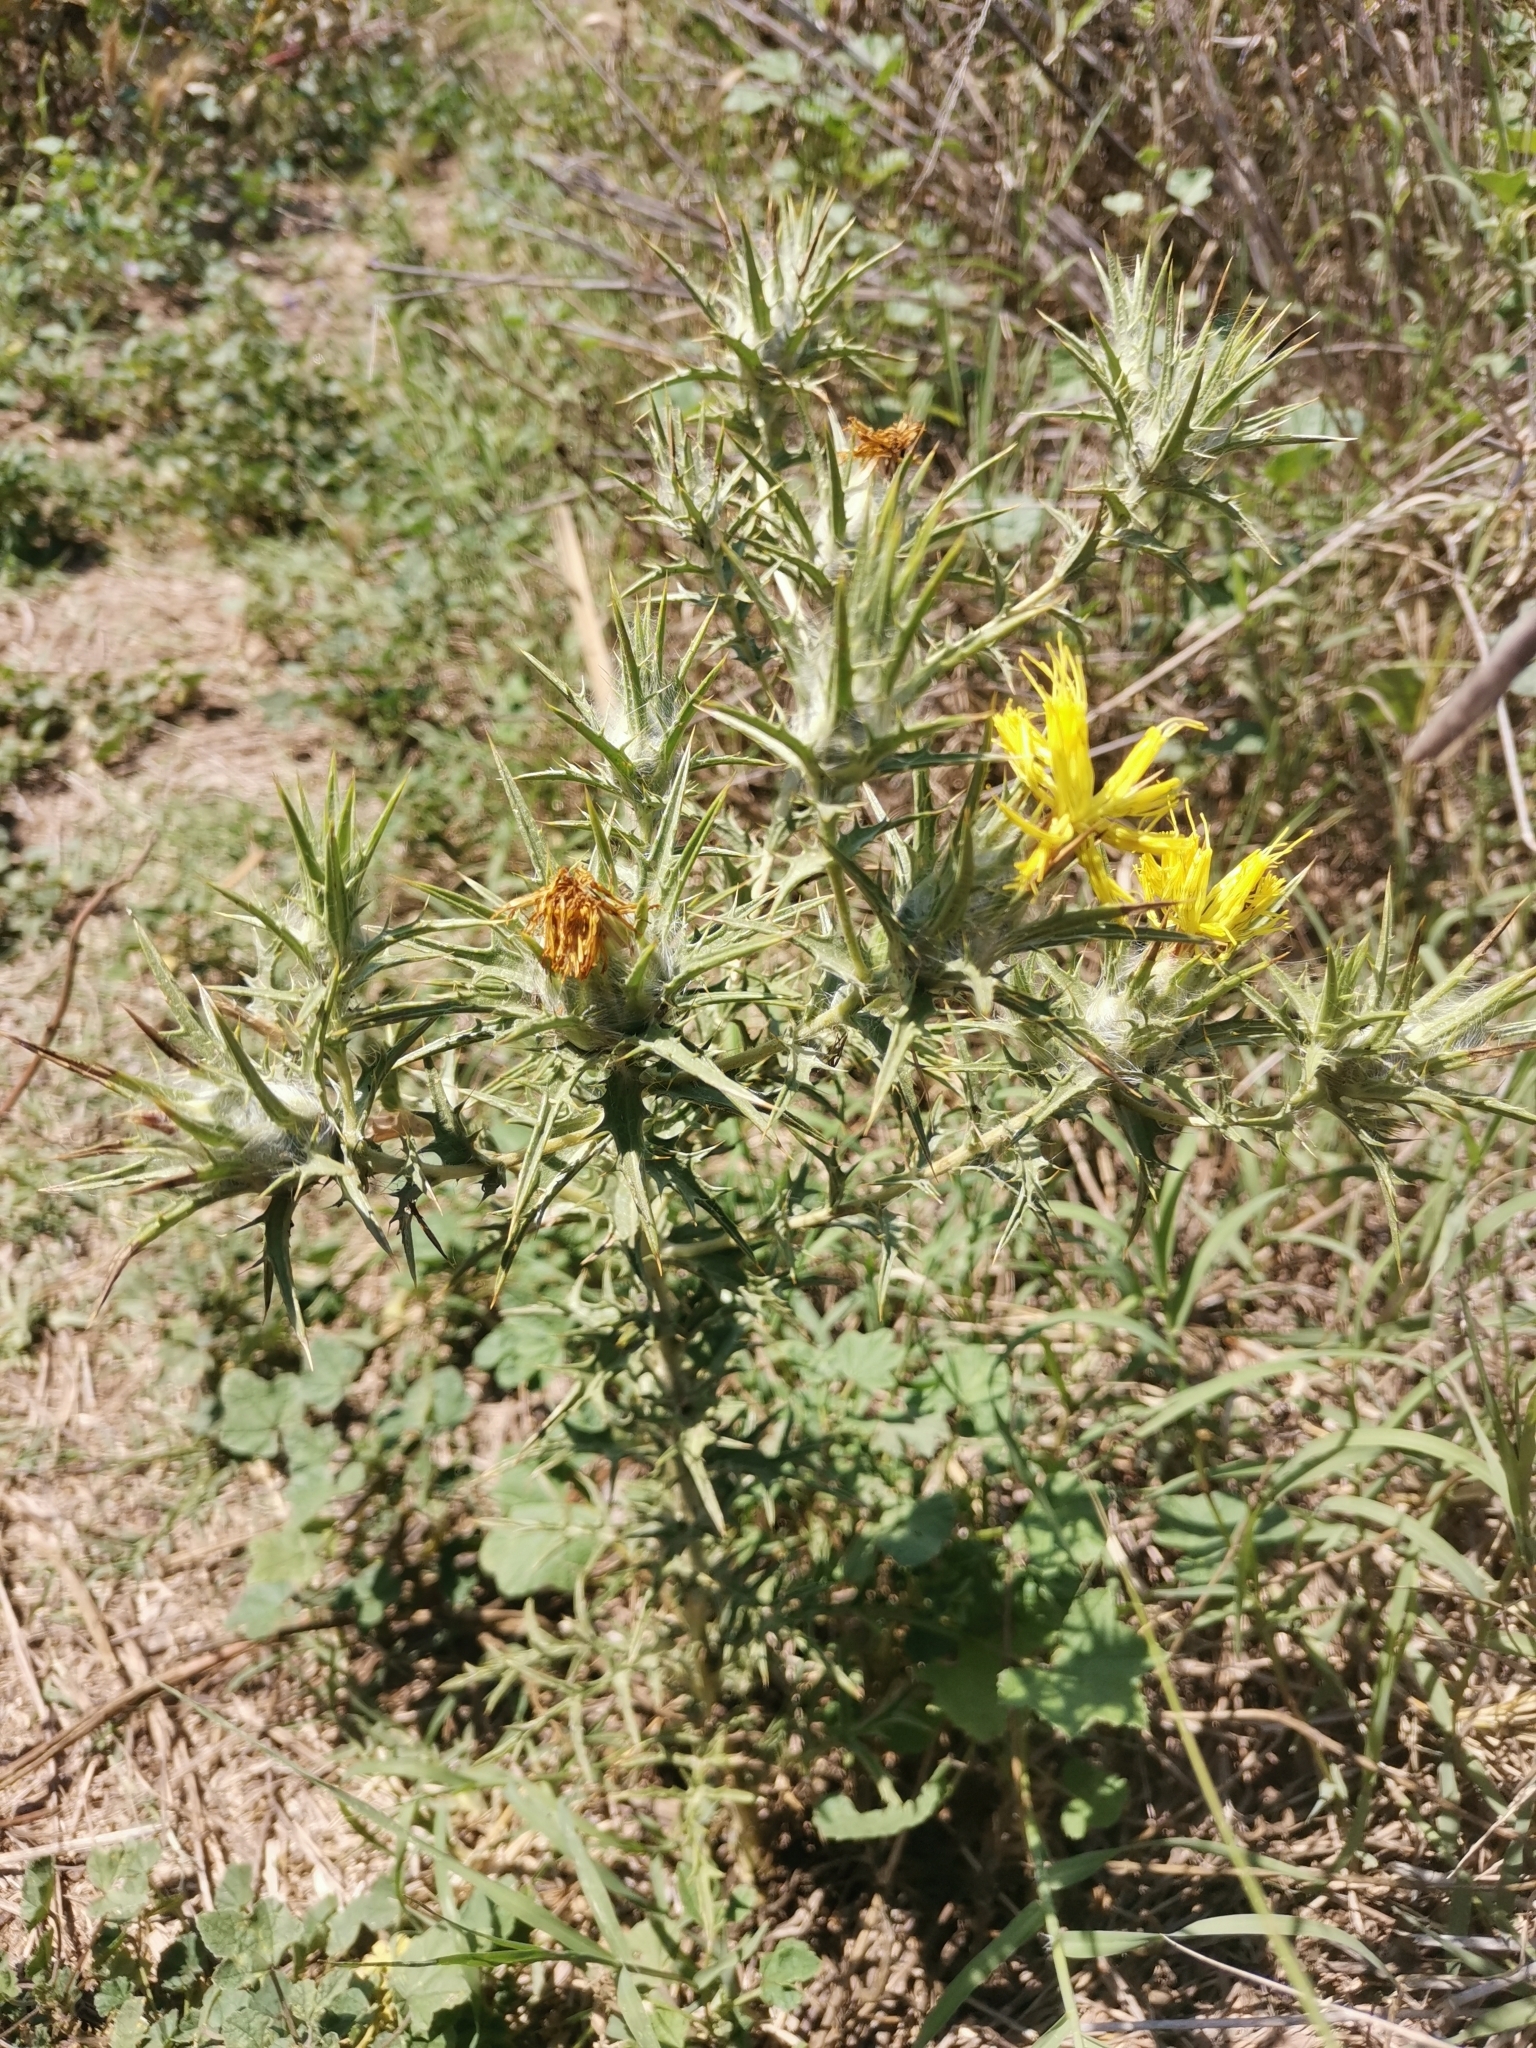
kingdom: Plantae
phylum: Tracheophyta
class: Magnoliopsida
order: Asterales
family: Asteraceae
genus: Carthamus
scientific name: Carthamus lanatus
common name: Downy safflower
